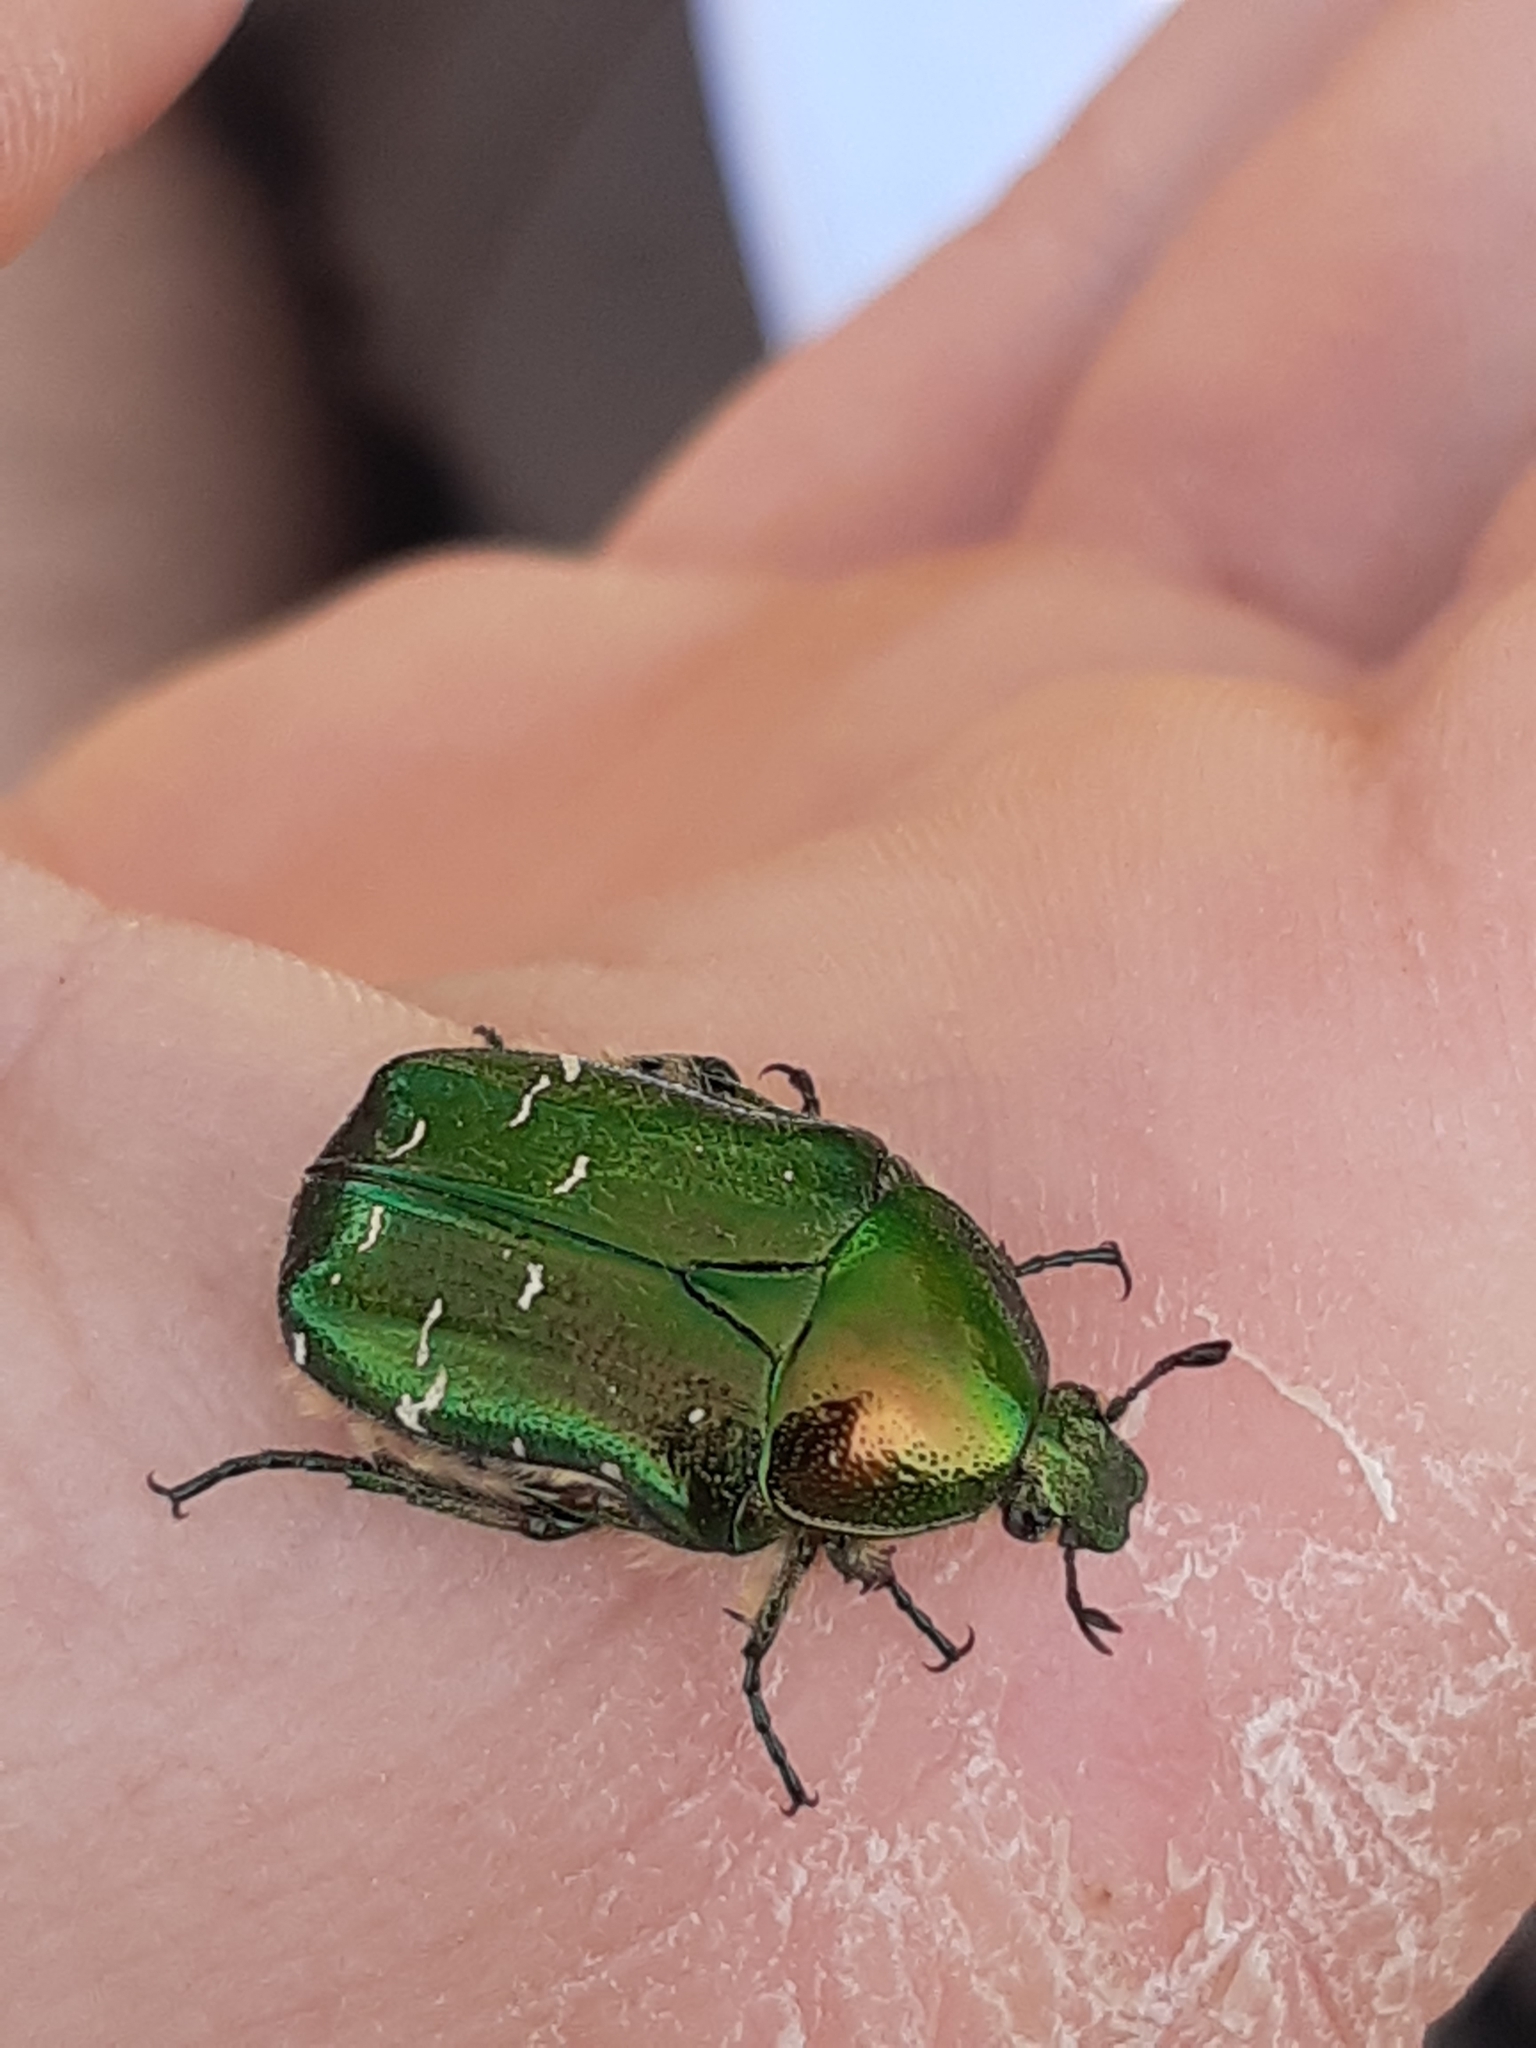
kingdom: Animalia
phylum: Arthropoda
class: Insecta
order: Coleoptera
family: Scarabaeidae
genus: Cetonia
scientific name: Cetonia aurata
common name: Rose chafer
